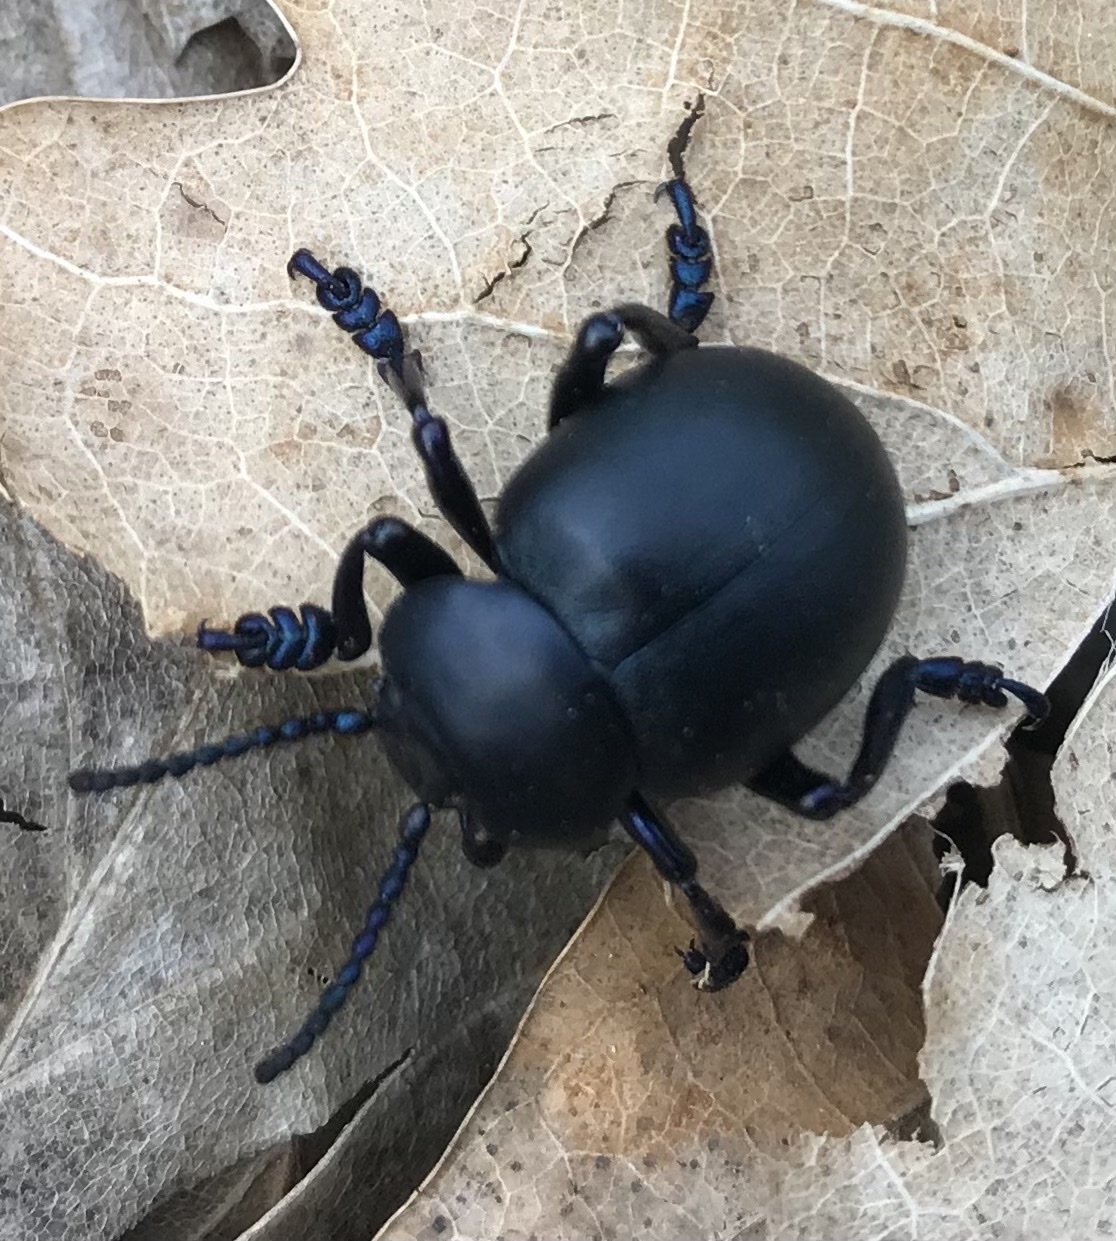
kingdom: Animalia
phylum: Arthropoda
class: Insecta
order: Coleoptera
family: Chrysomelidae
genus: Timarcha
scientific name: Timarcha tenebricosa
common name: Bloody-nosed beetle
